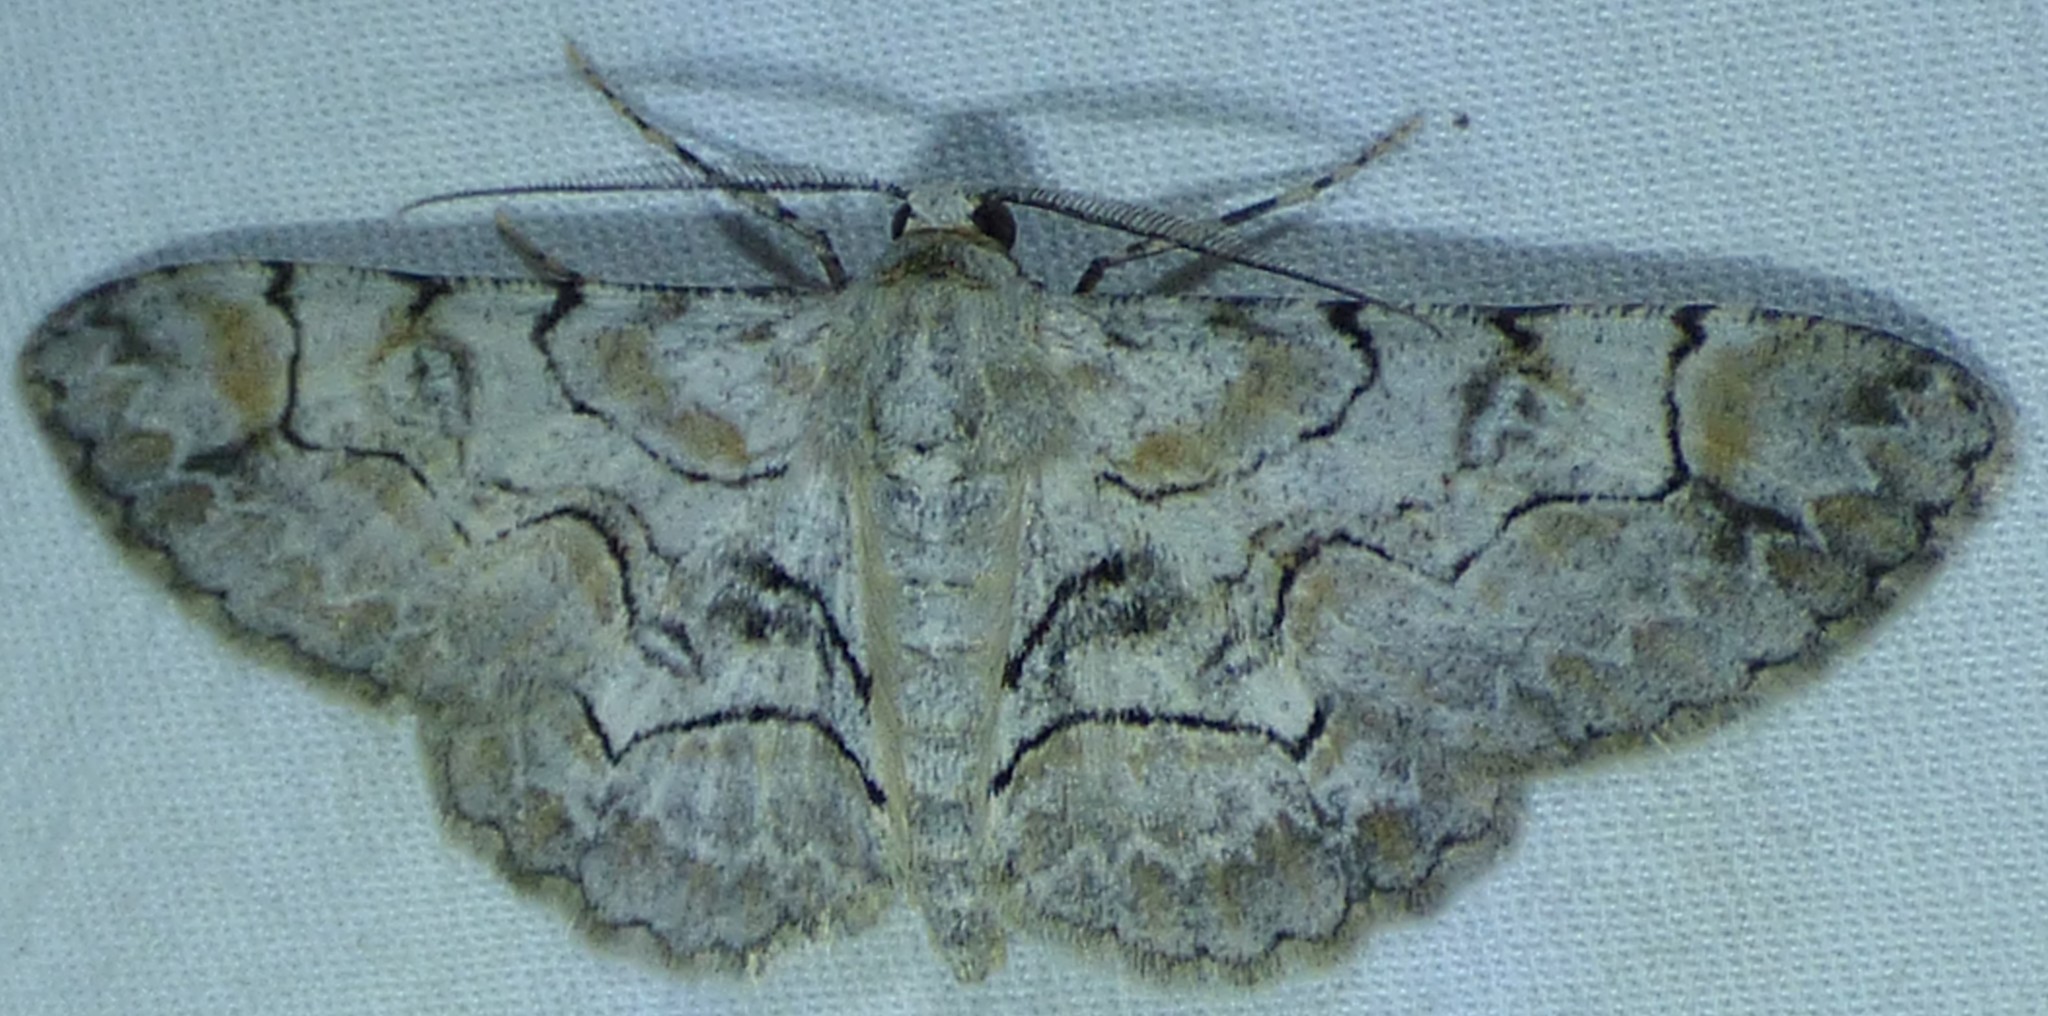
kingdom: Animalia
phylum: Arthropoda
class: Insecta
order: Lepidoptera
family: Geometridae
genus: Iridopsis
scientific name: Iridopsis larvaria
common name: Bent-line gray
